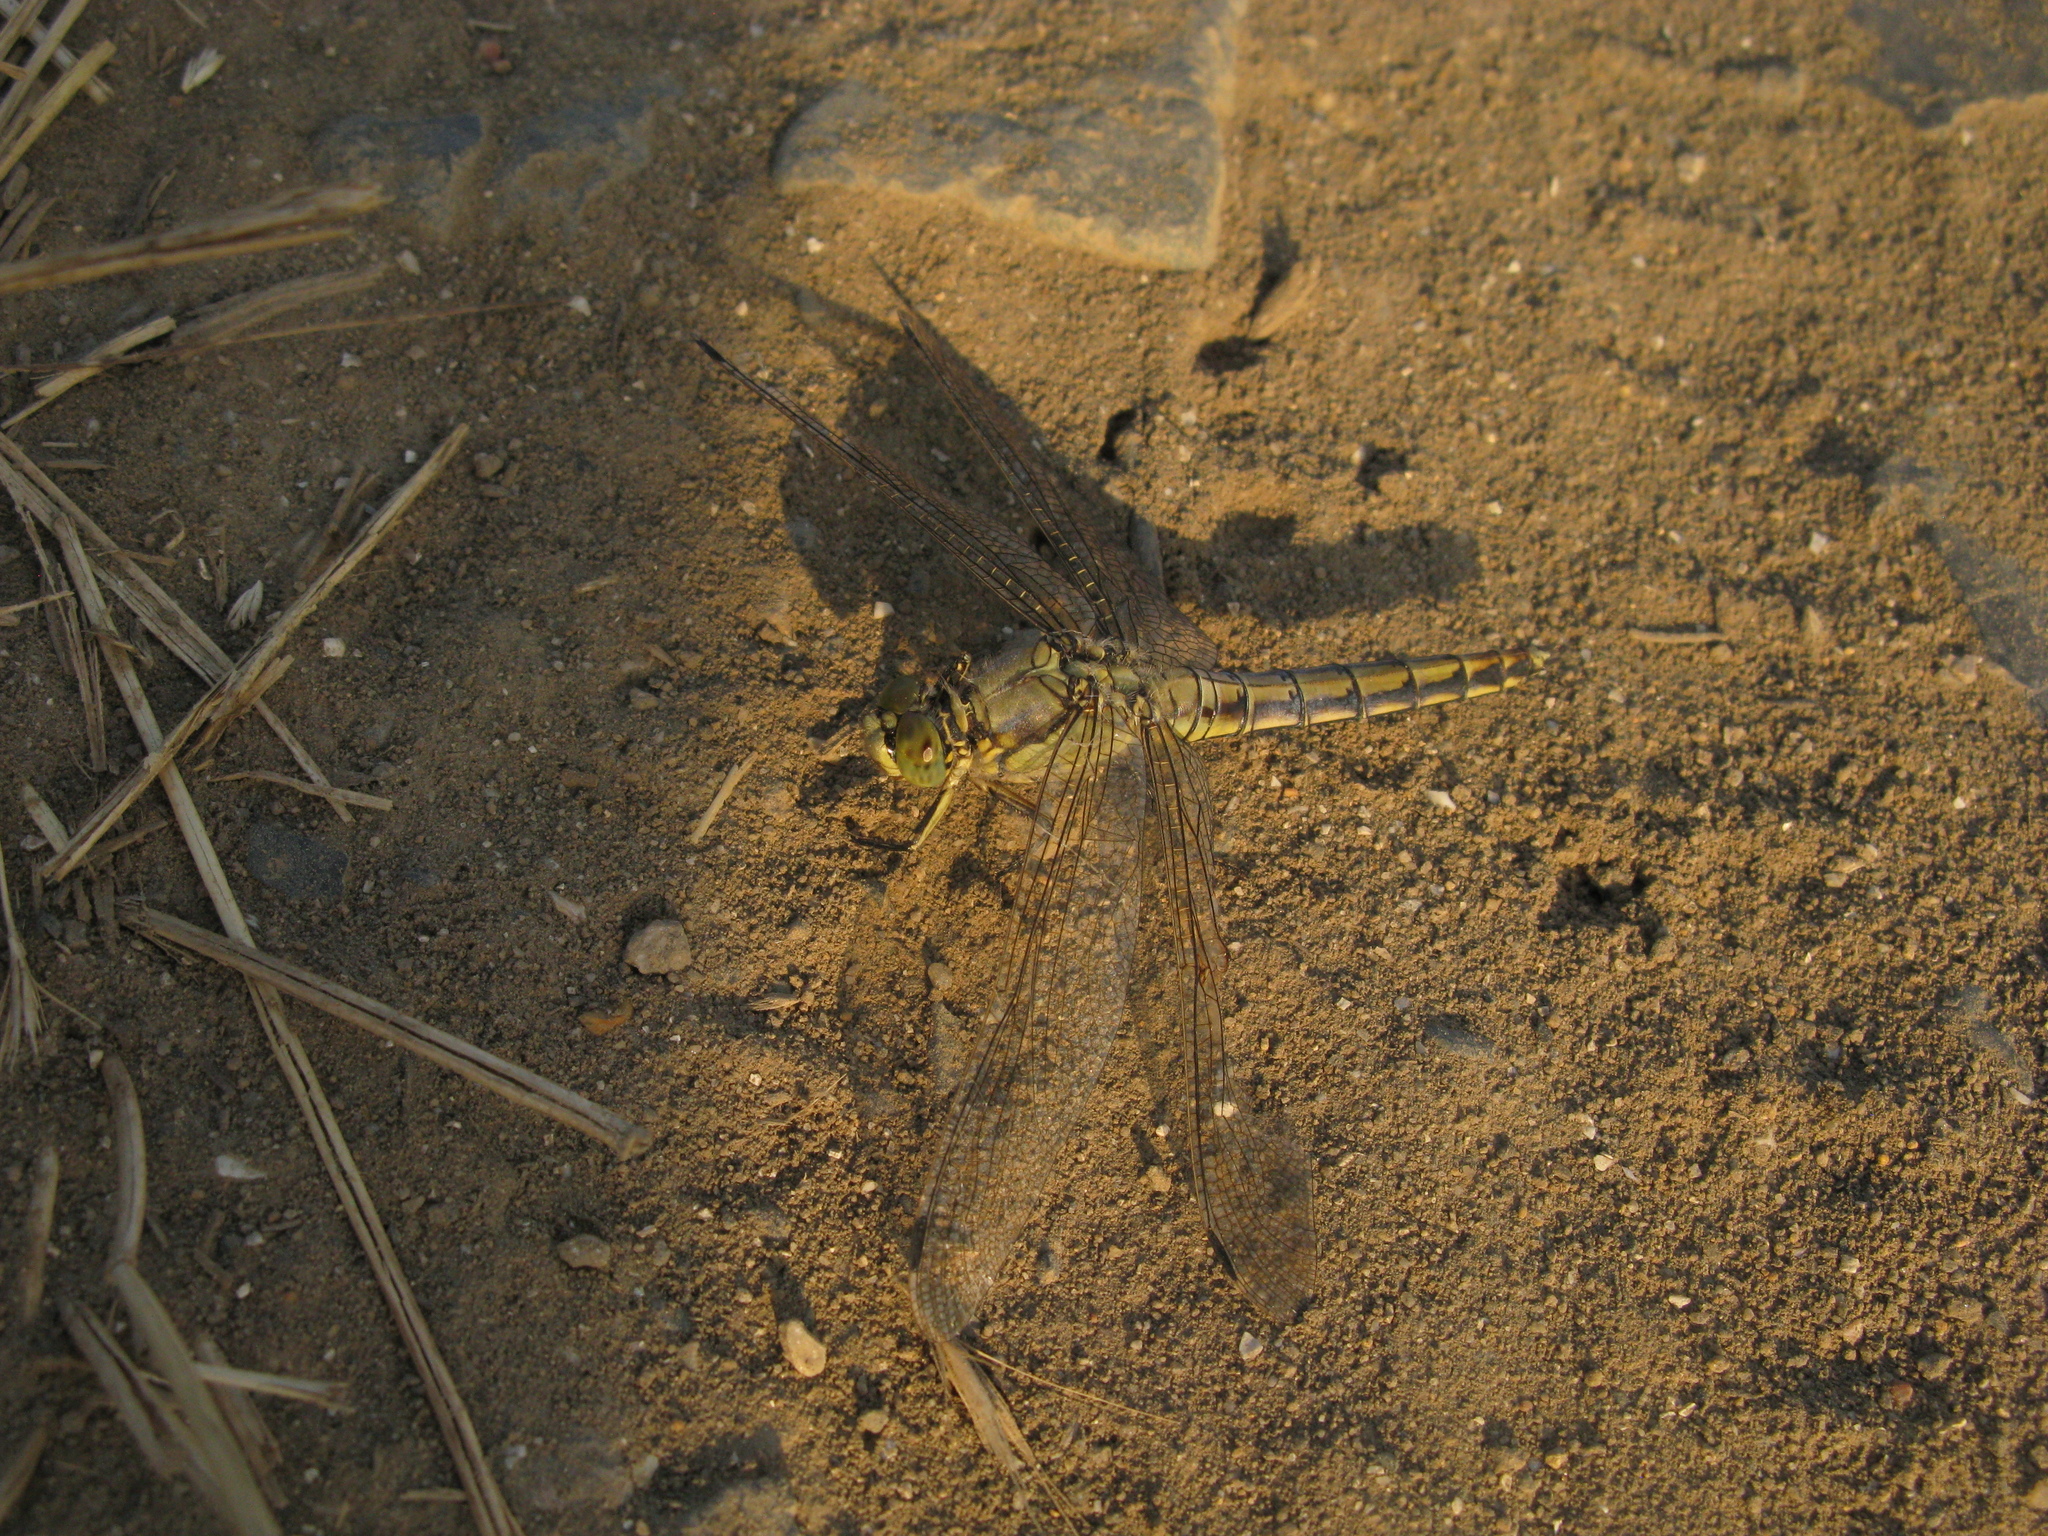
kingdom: Animalia
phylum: Arthropoda
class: Insecta
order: Odonata
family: Libellulidae
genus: Orthetrum
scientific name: Orthetrum cancellatum
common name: Black-tailed skimmer
